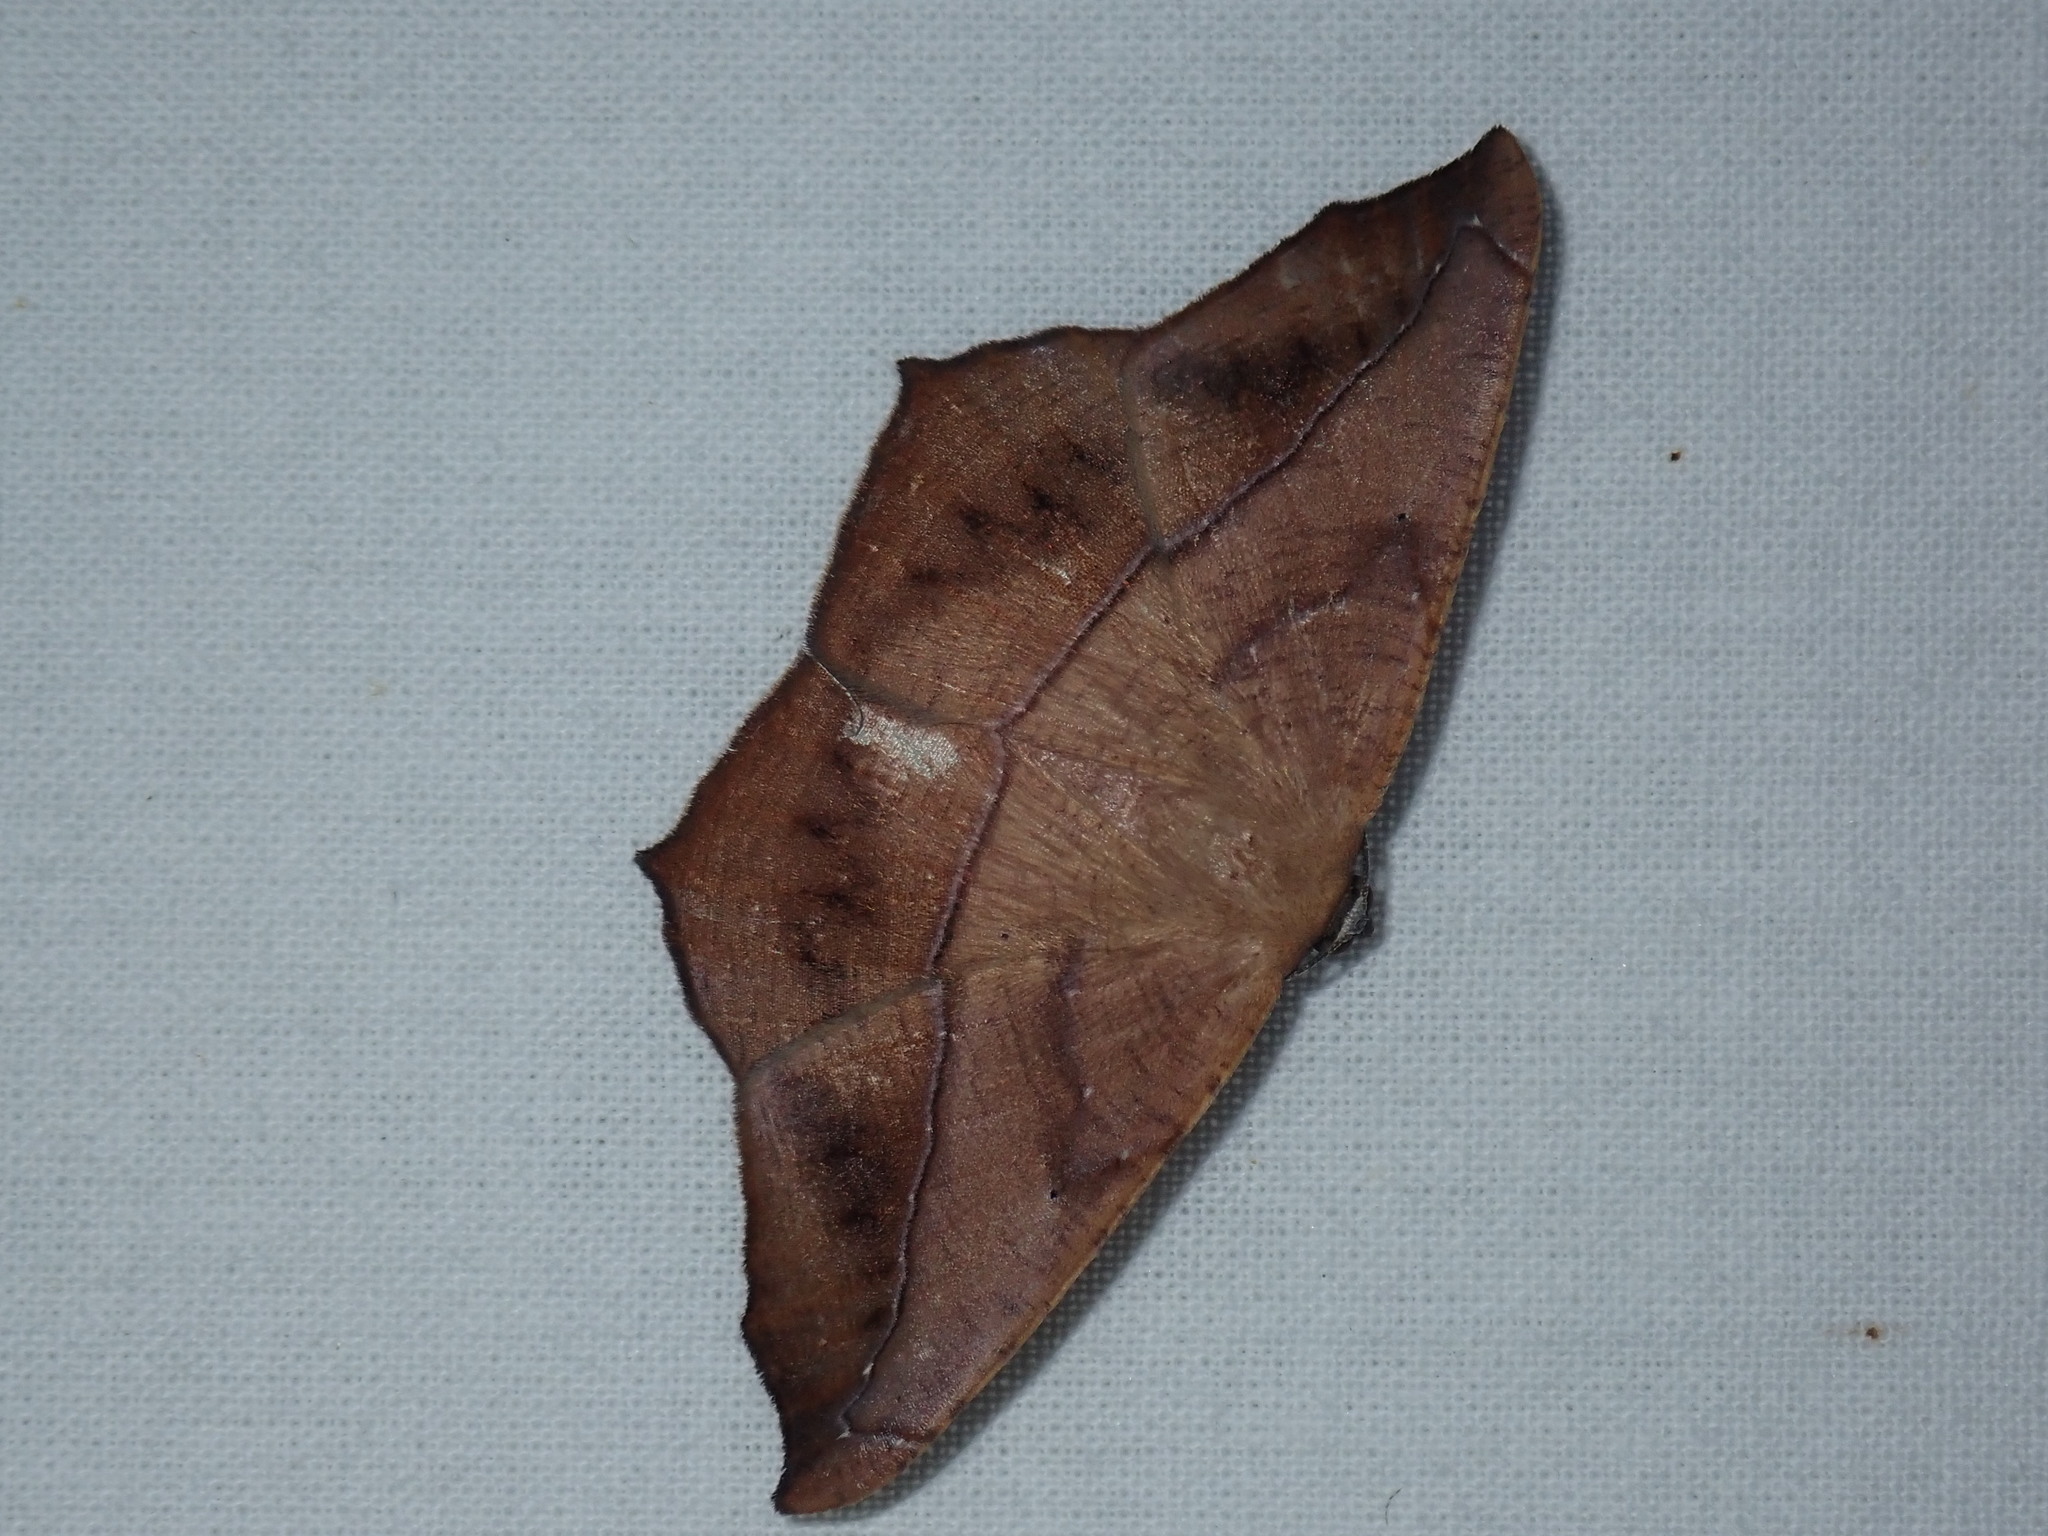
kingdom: Animalia
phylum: Arthropoda
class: Insecta
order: Lepidoptera
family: Geometridae
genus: Prochoerodes
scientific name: Prochoerodes lineola
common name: Large maple spanworm
